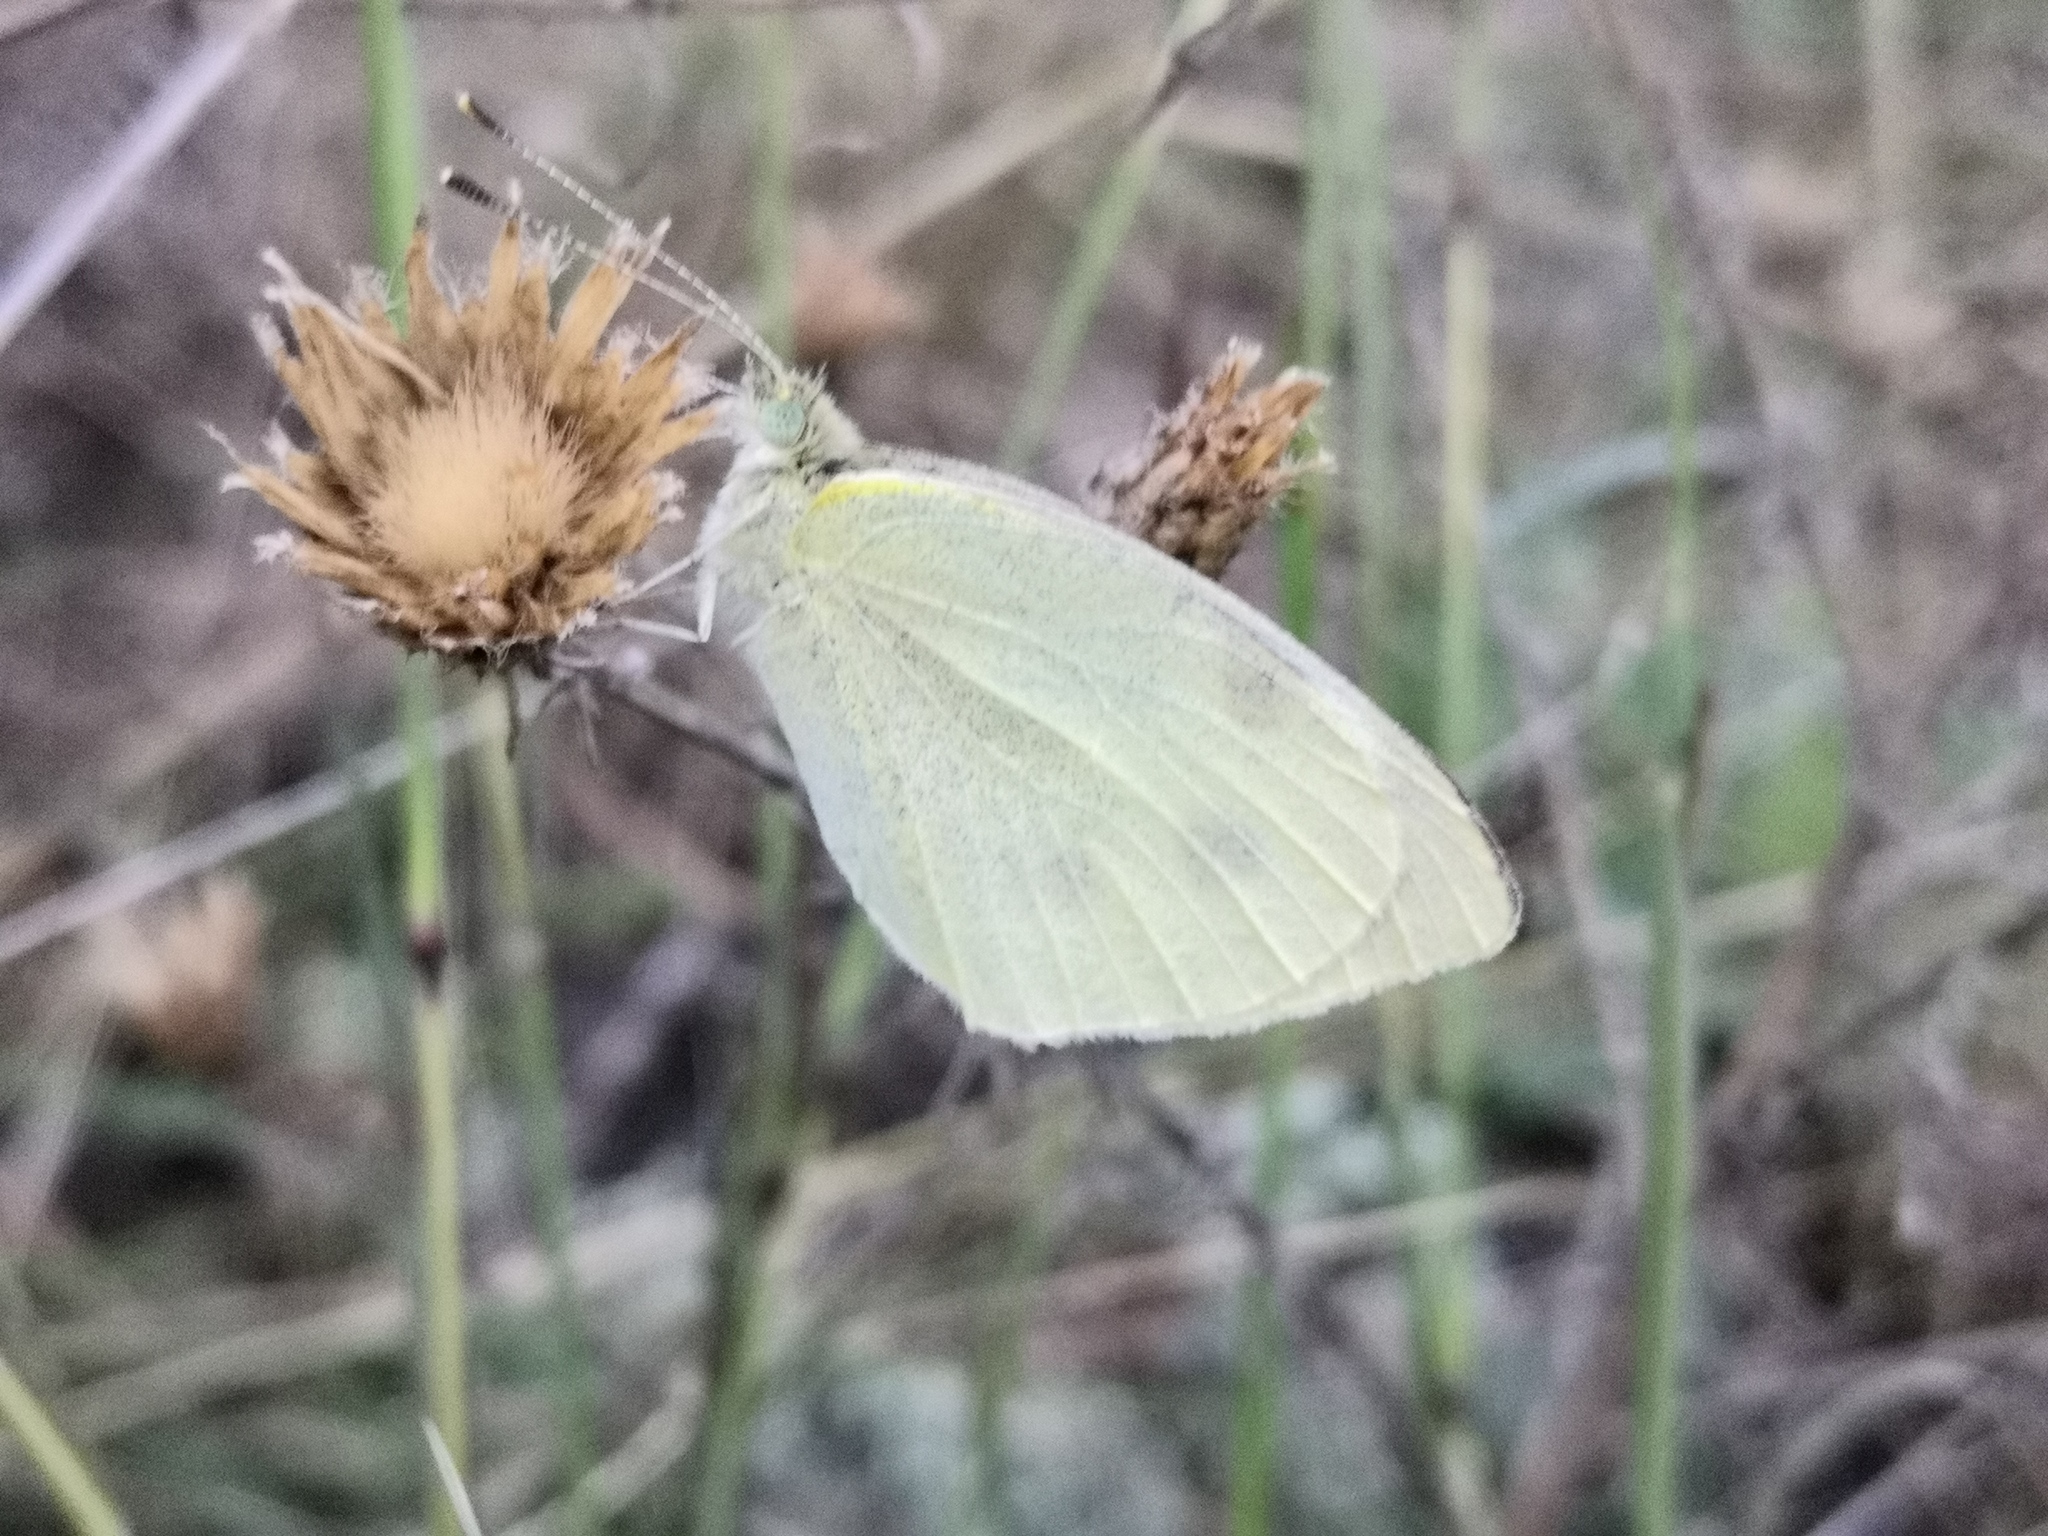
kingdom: Animalia
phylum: Arthropoda
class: Insecta
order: Lepidoptera
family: Pieridae
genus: Pieris
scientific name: Pieris rapae
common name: Small white
